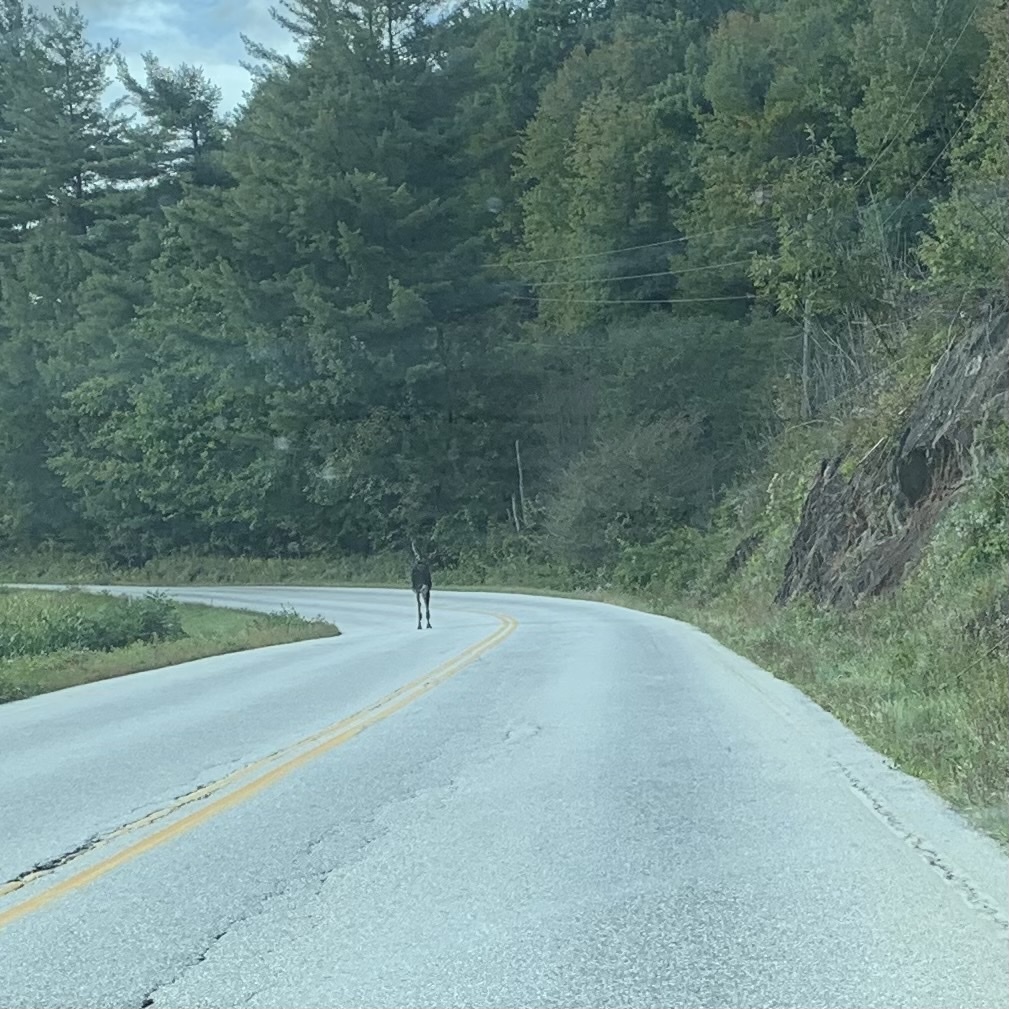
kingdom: Animalia
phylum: Chordata
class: Mammalia
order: Artiodactyla
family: Cervidae
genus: Alces
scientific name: Alces alces
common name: Moose
